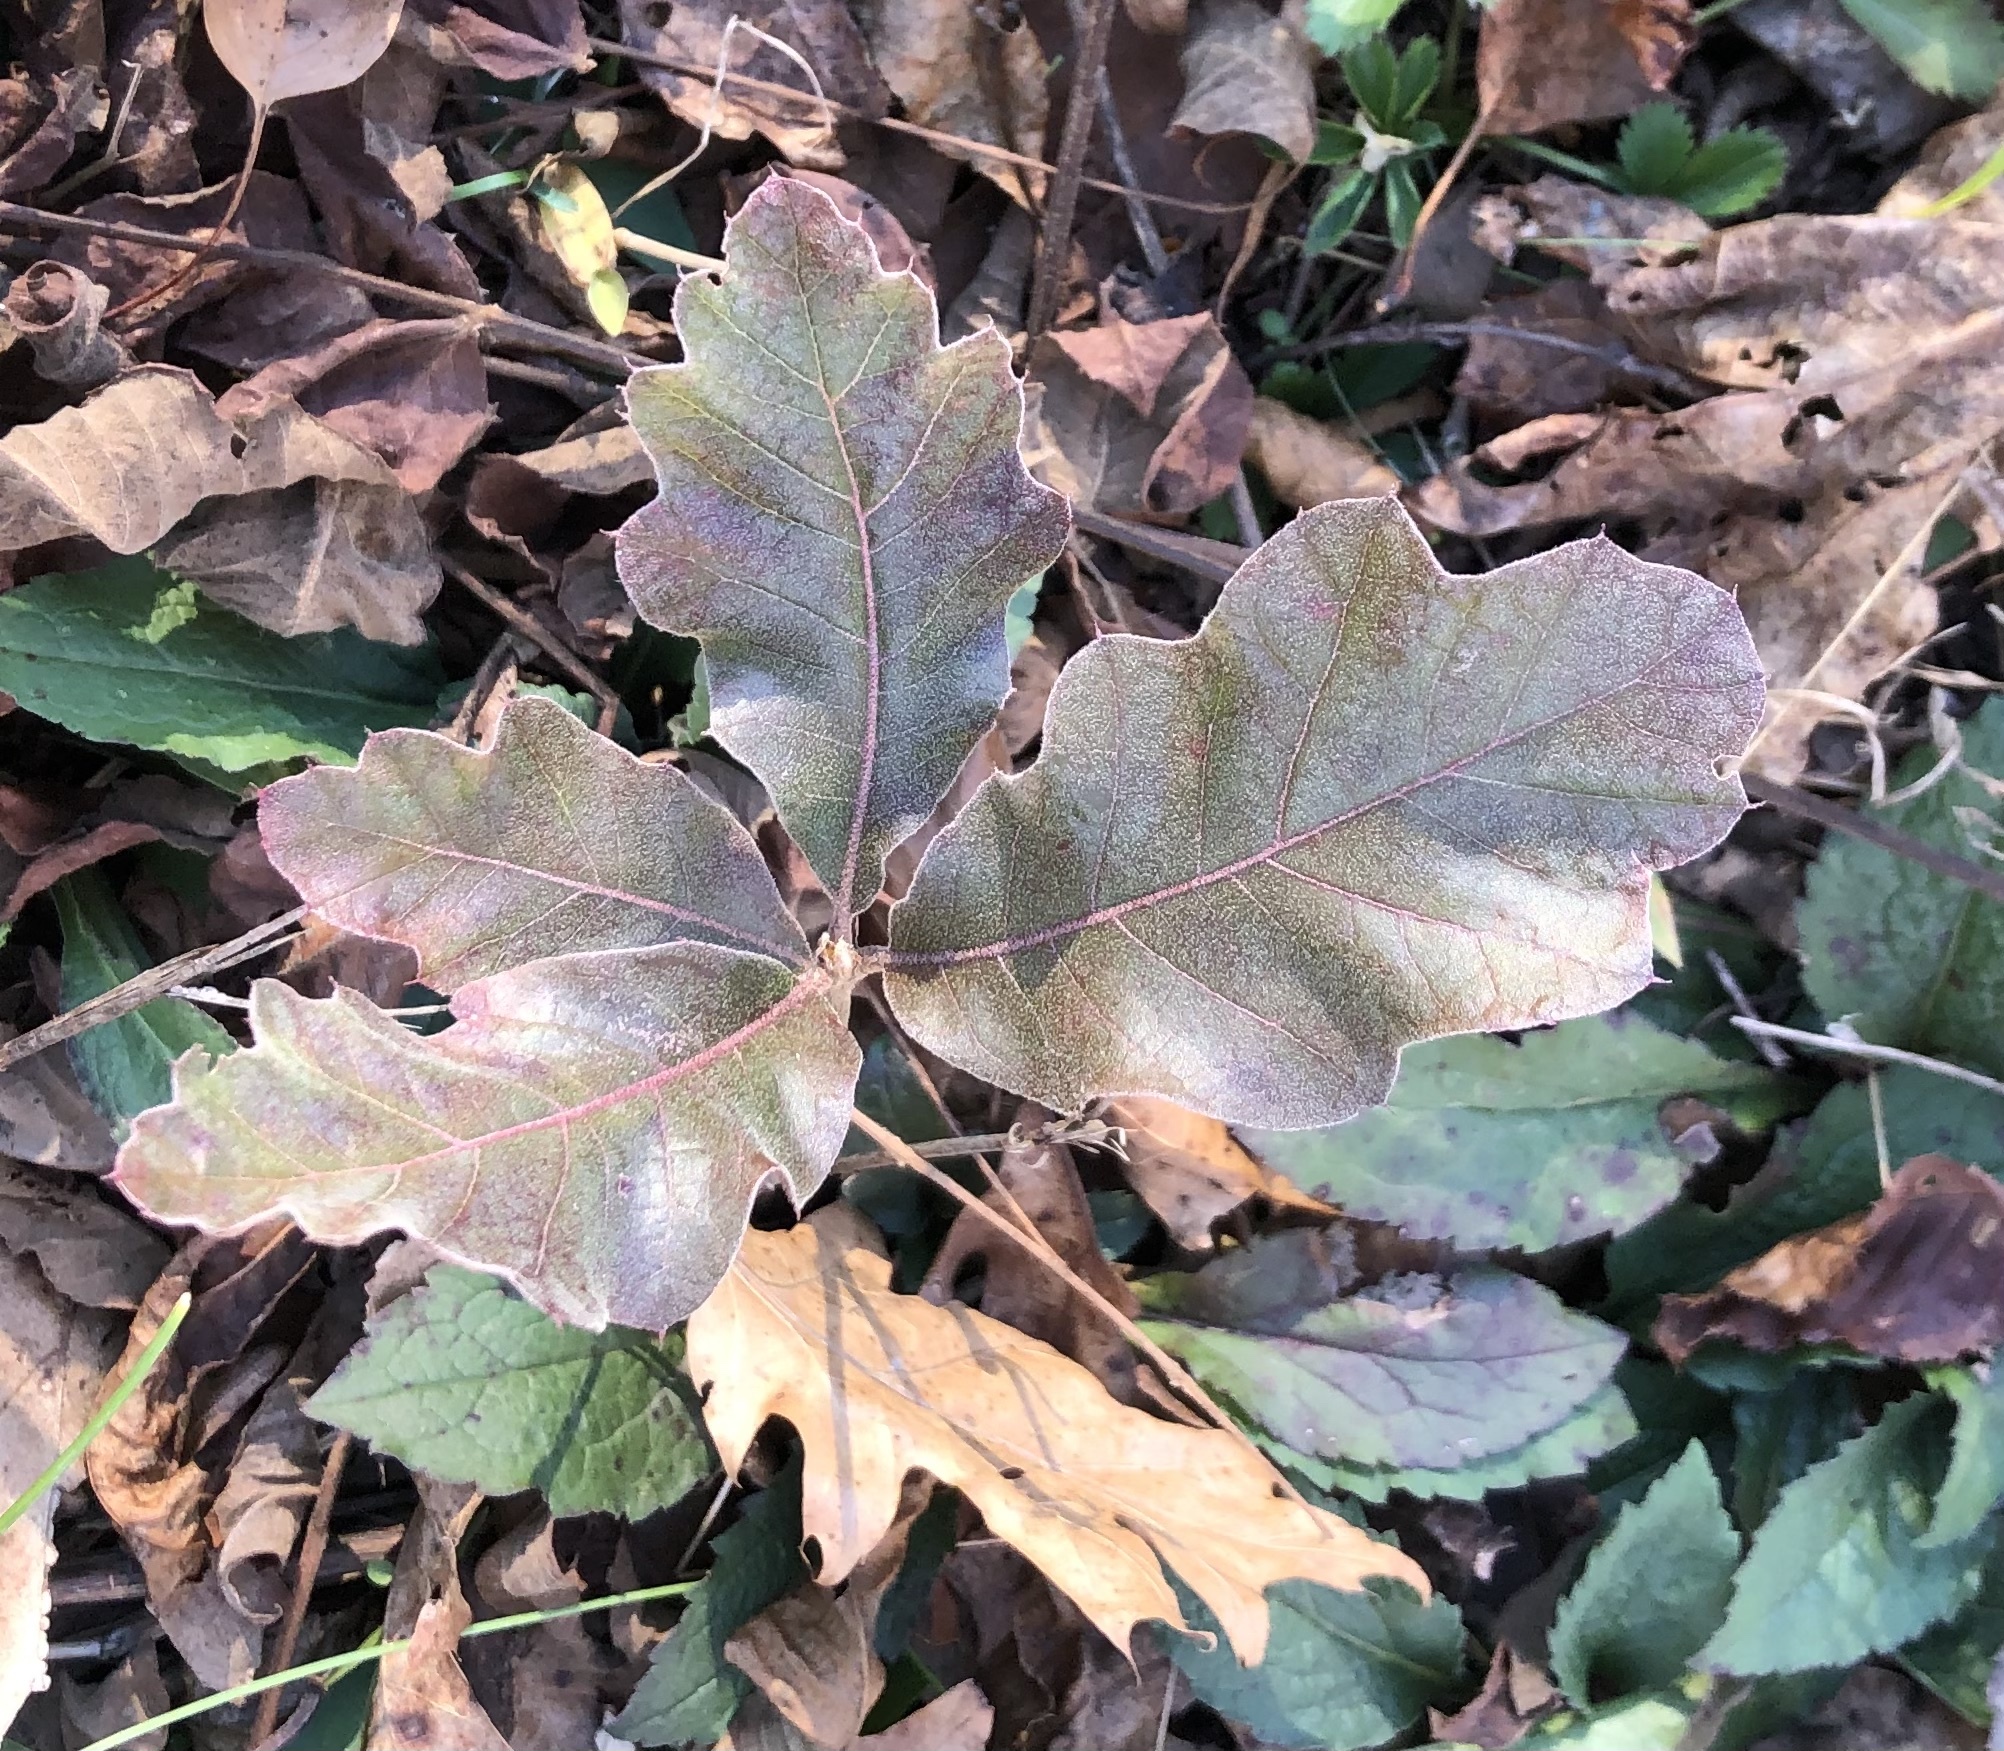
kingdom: Plantae
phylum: Tracheophyta
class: Magnoliopsida
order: Fagales
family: Fagaceae
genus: Quercus
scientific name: Quercus velutina
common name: Black oak
